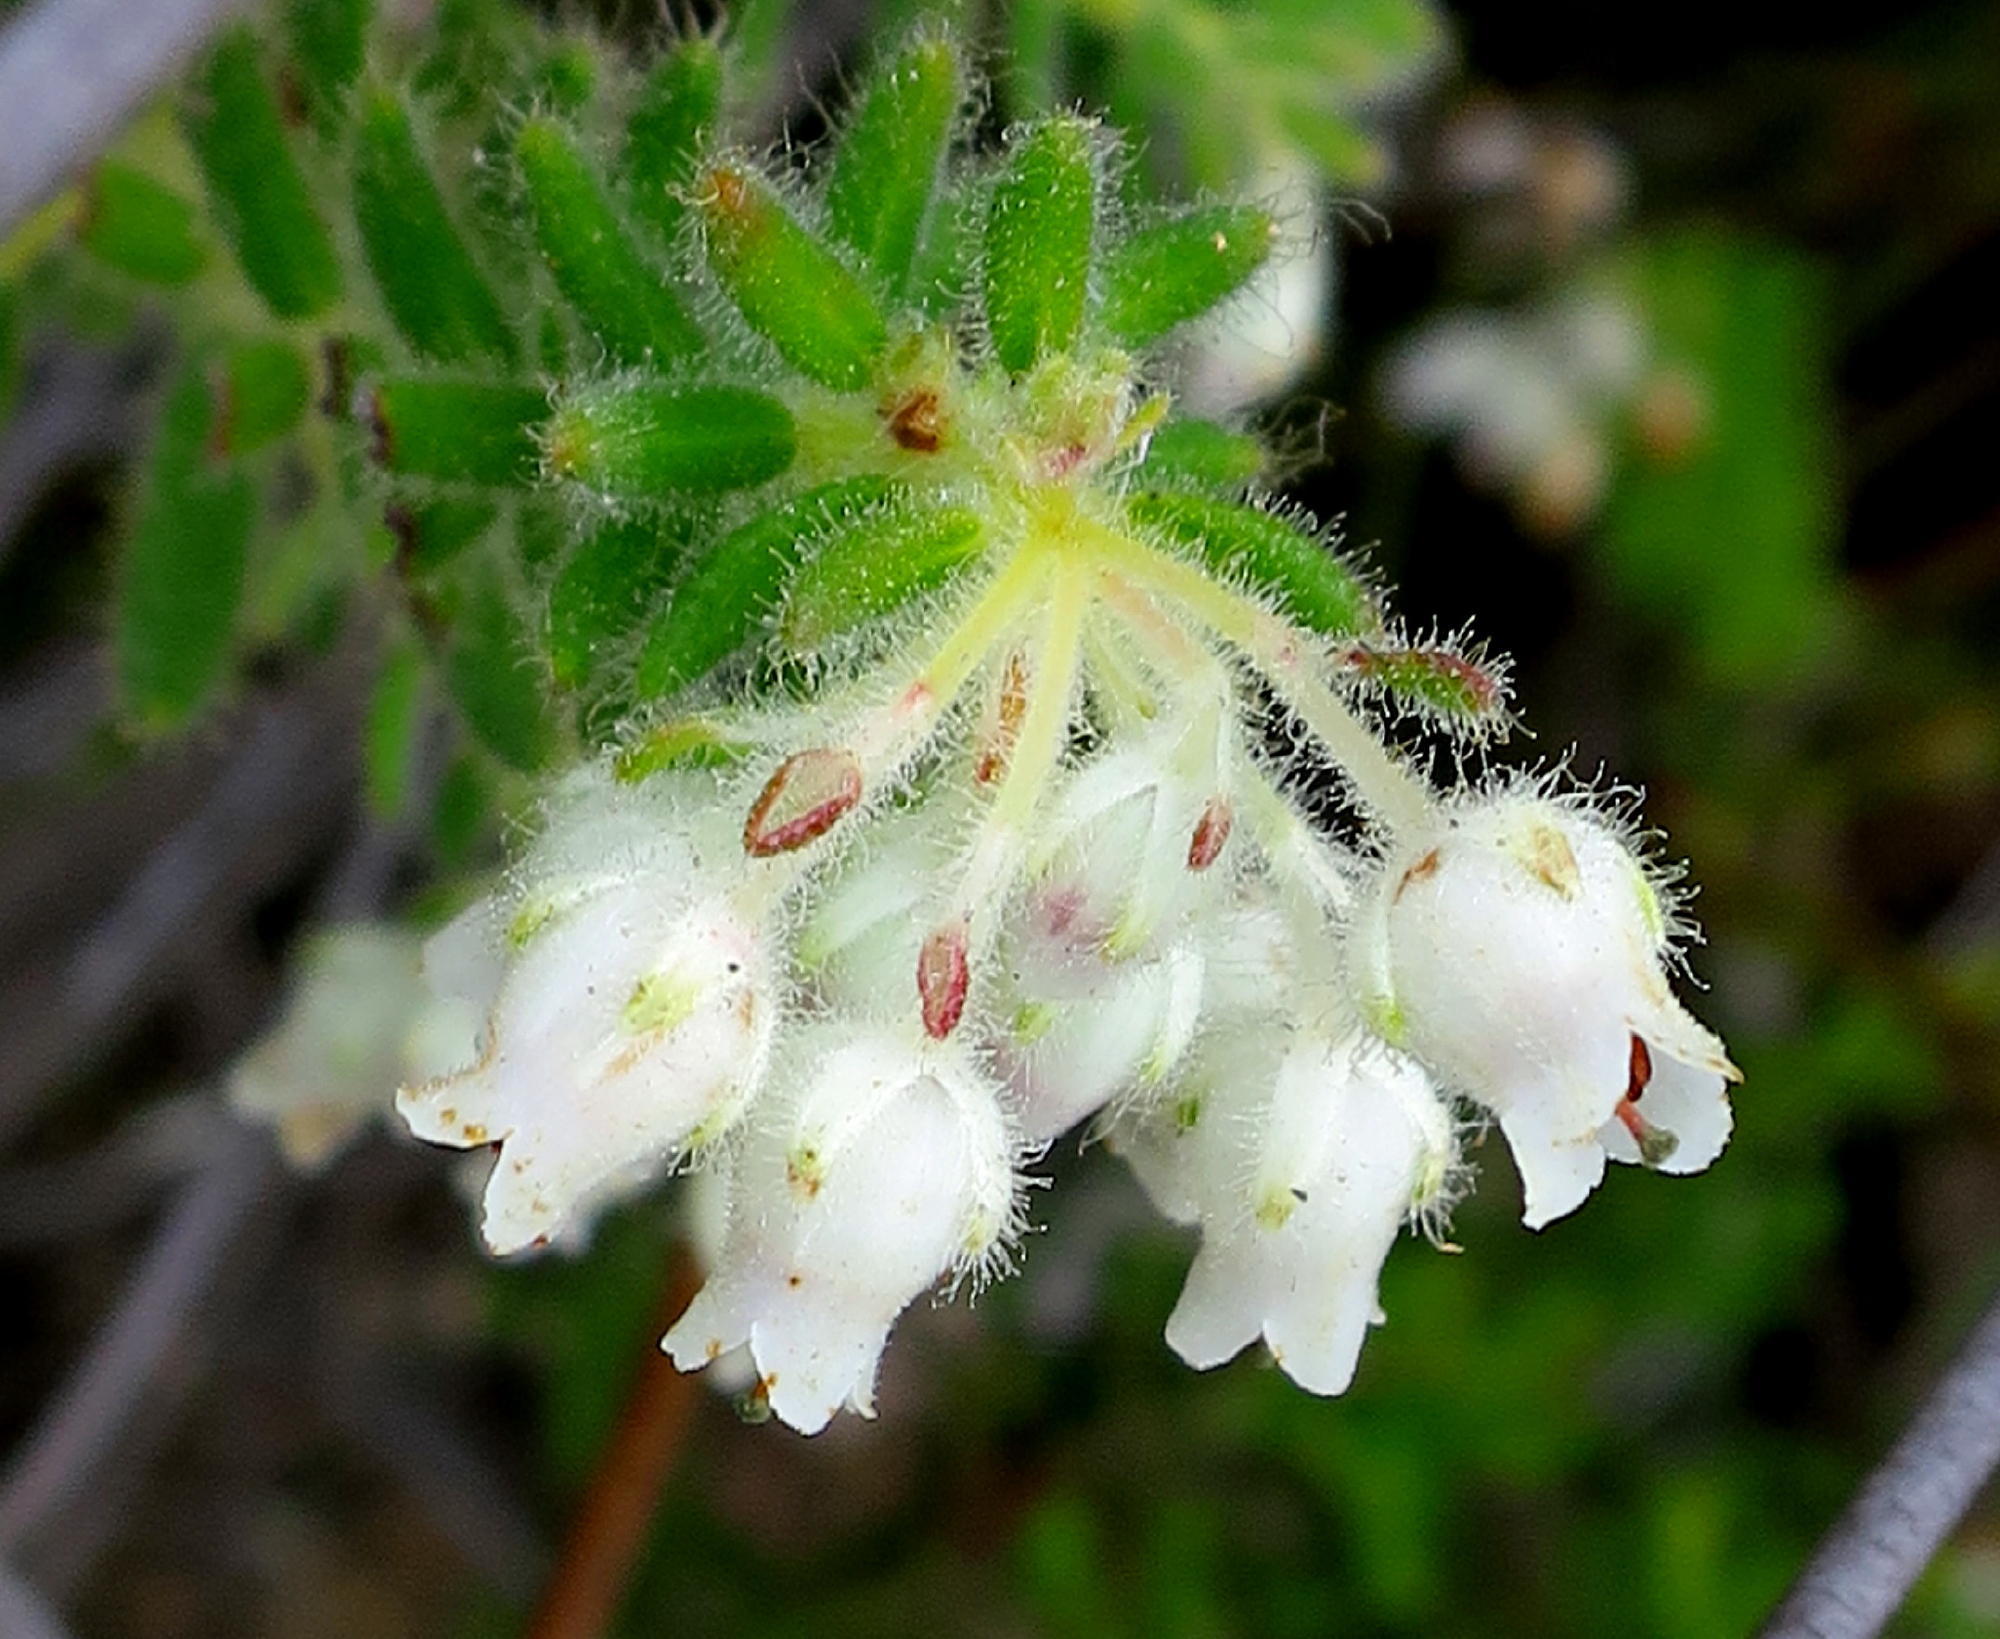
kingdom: Plantae
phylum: Tracheophyta
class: Magnoliopsida
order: Ericales
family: Ericaceae
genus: Erica
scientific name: Erica pannosa
